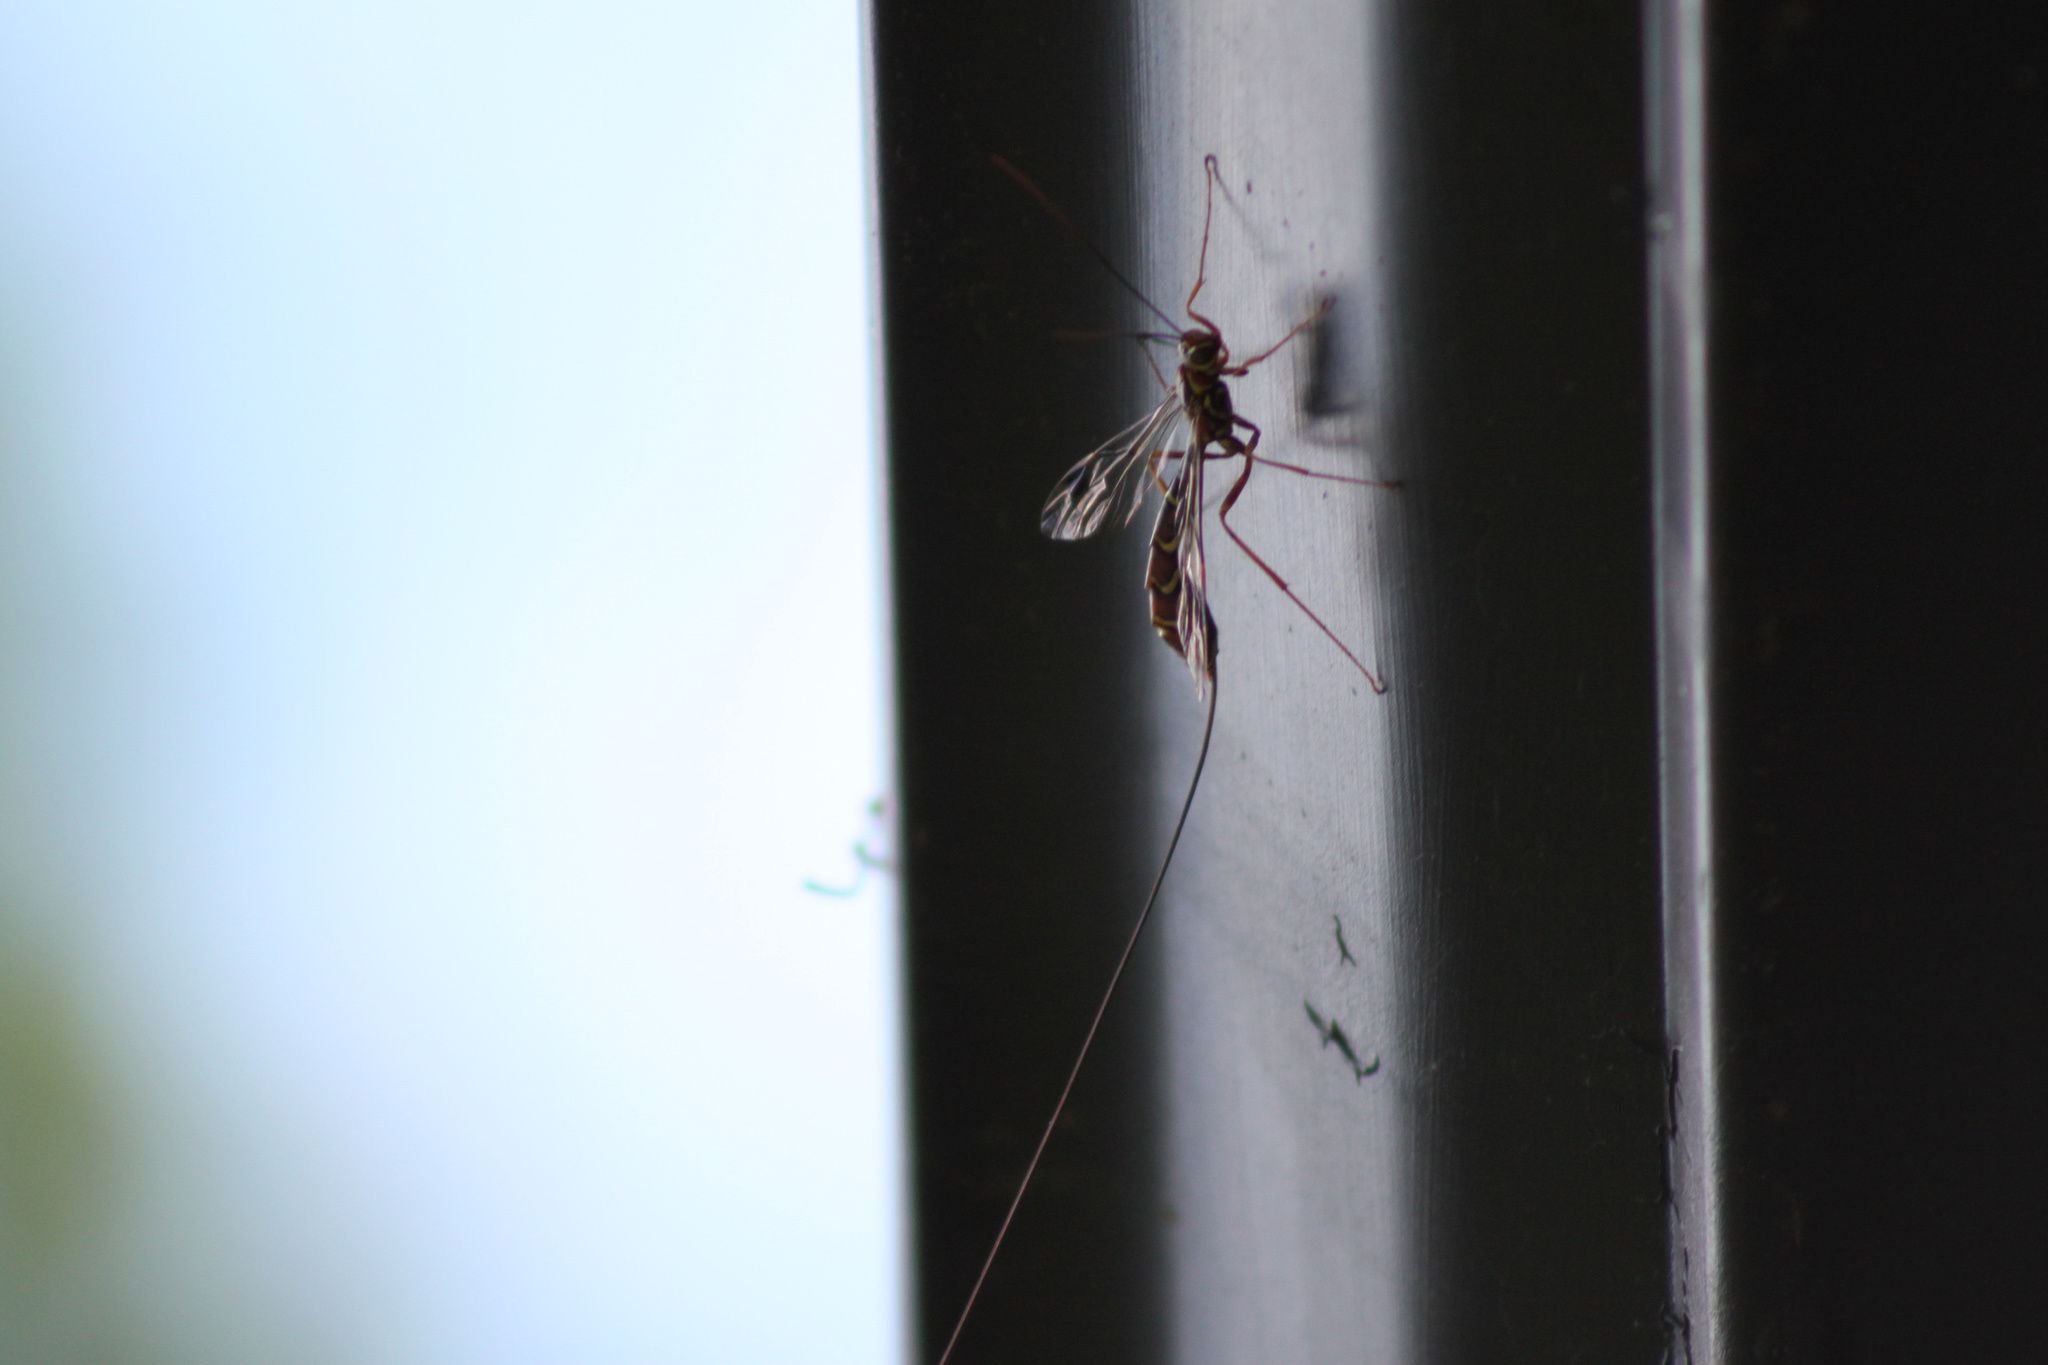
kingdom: Animalia
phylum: Arthropoda
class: Insecta
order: Hymenoptera
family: Ichneumonidae
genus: Megarhyssa
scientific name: Megarhyssa macrura
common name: Long-tailed giant ichneumonid wasp
